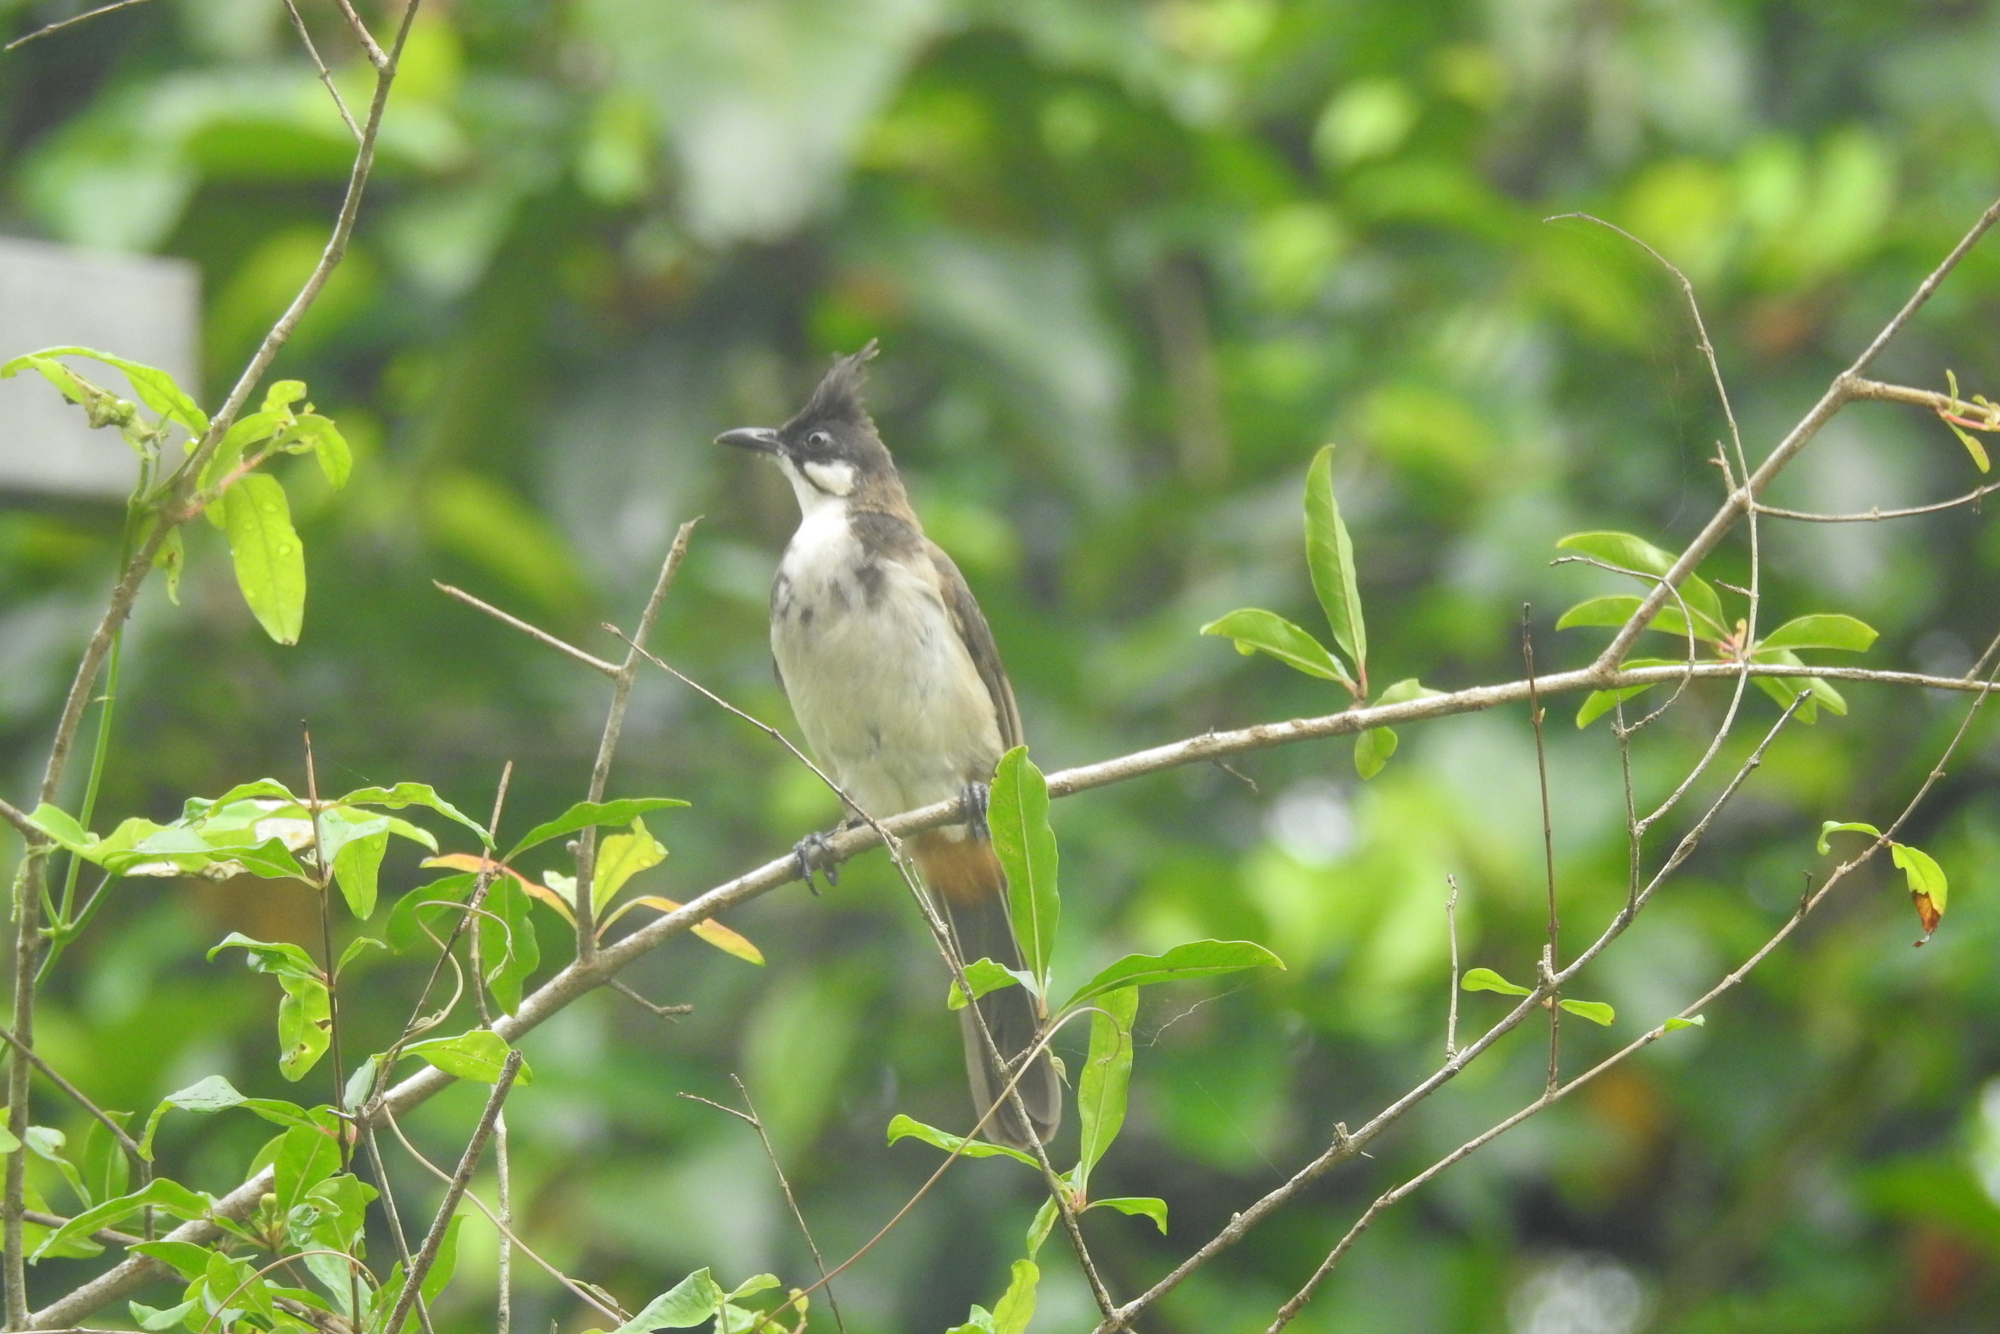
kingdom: Animalia
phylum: Chordata
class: Aves
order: Passeriformes
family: Pycnonotidae
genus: Pycnonotus
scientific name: Pycnonotus jocosus
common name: Red-whiskered bulbul
